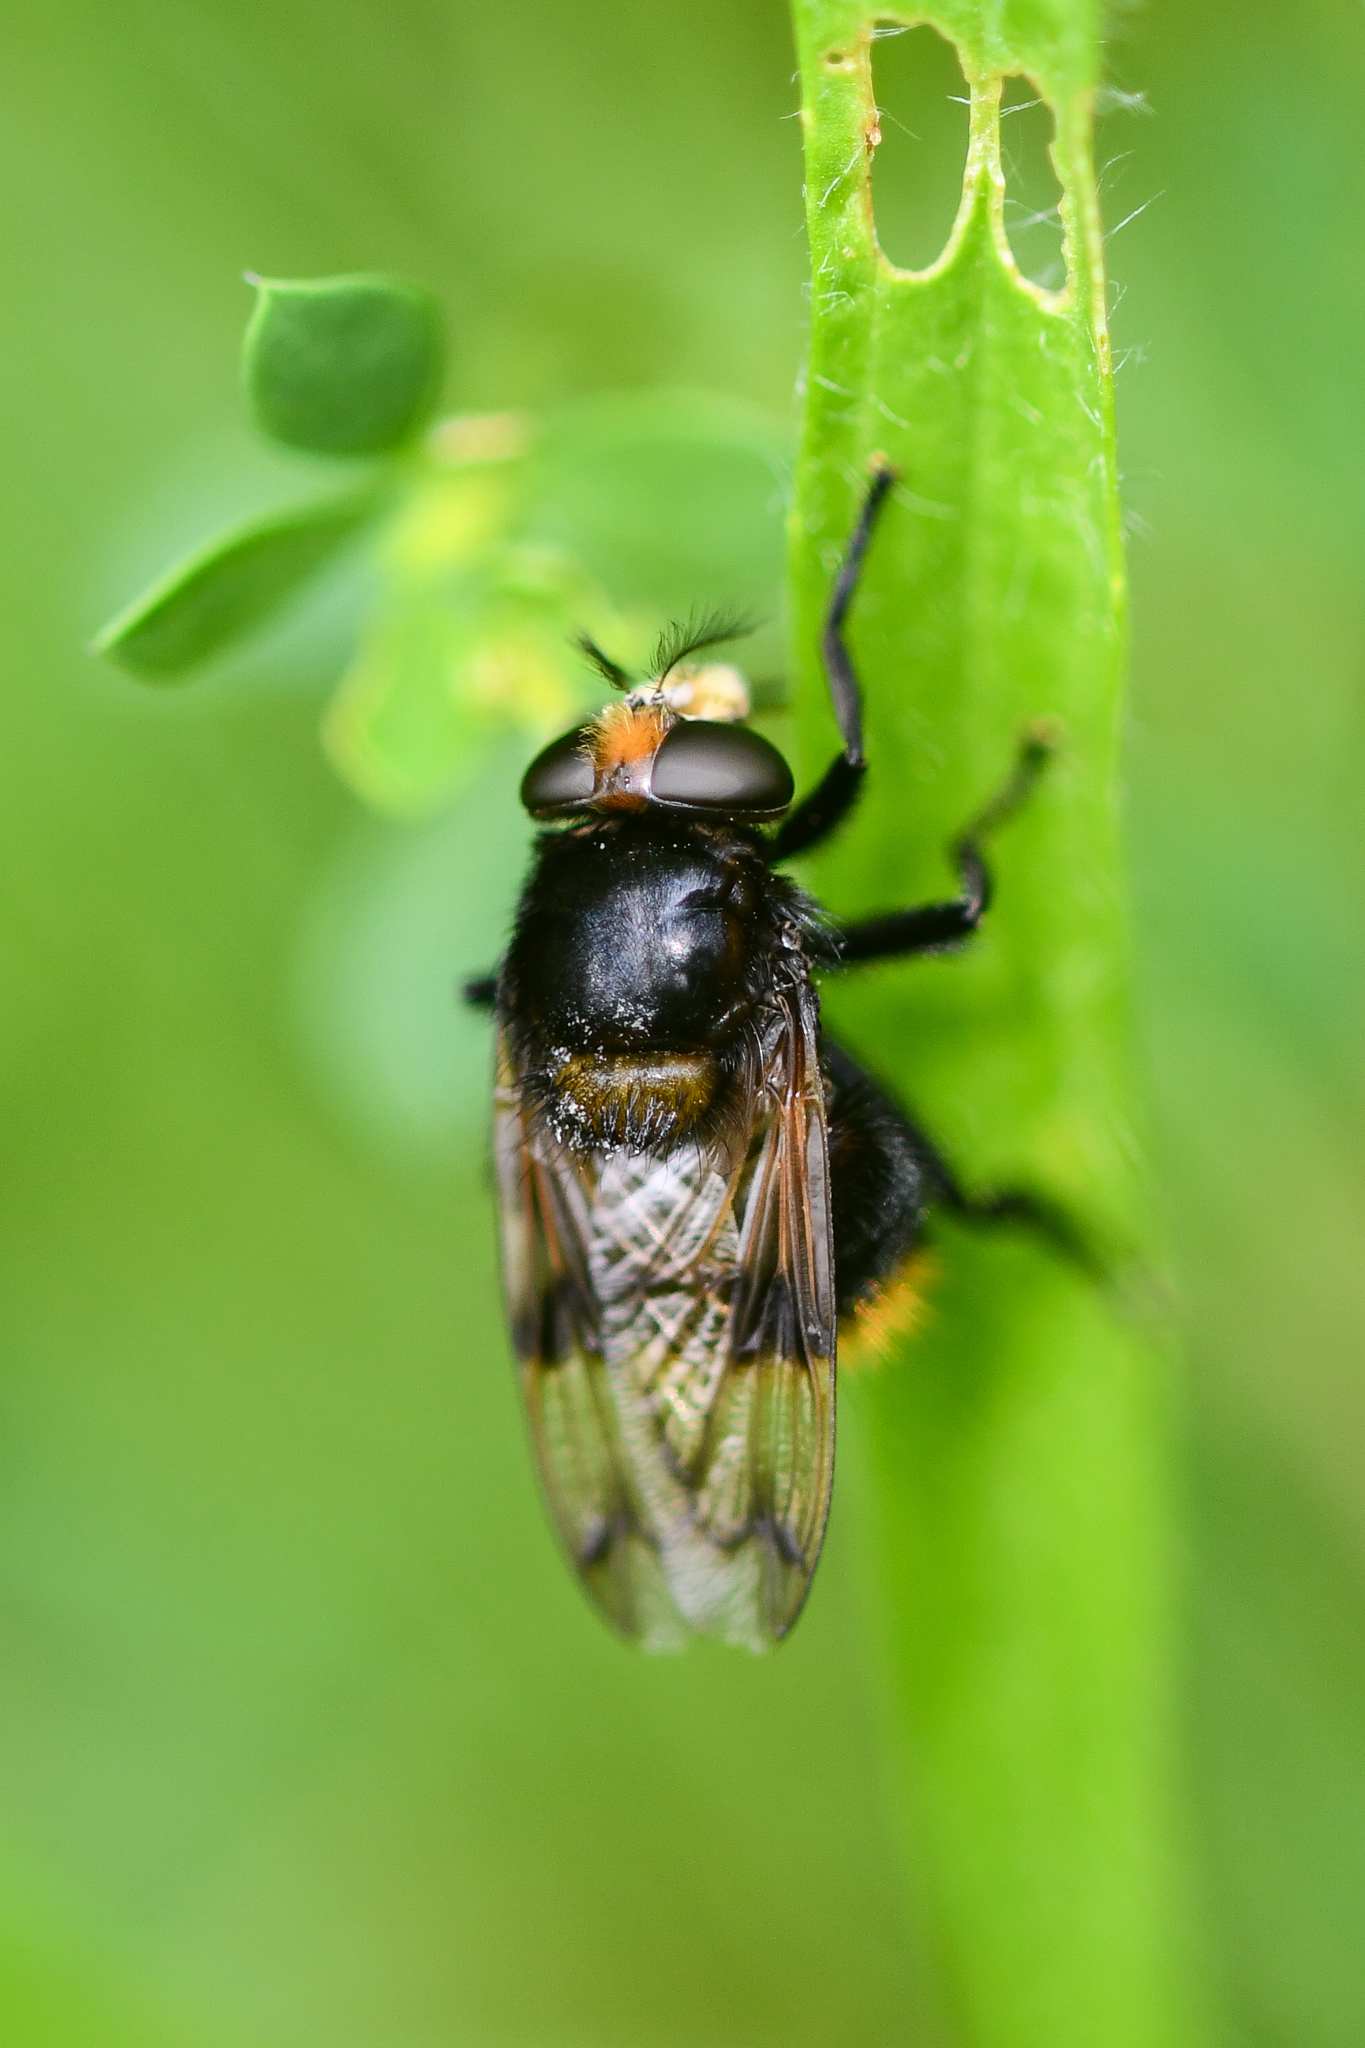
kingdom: Animalia
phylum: Arthropoda
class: Insecta
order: Diptera
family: Syrphidae
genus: Volucella
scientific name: Volucella bombylans
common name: Bumble bee hover fly
